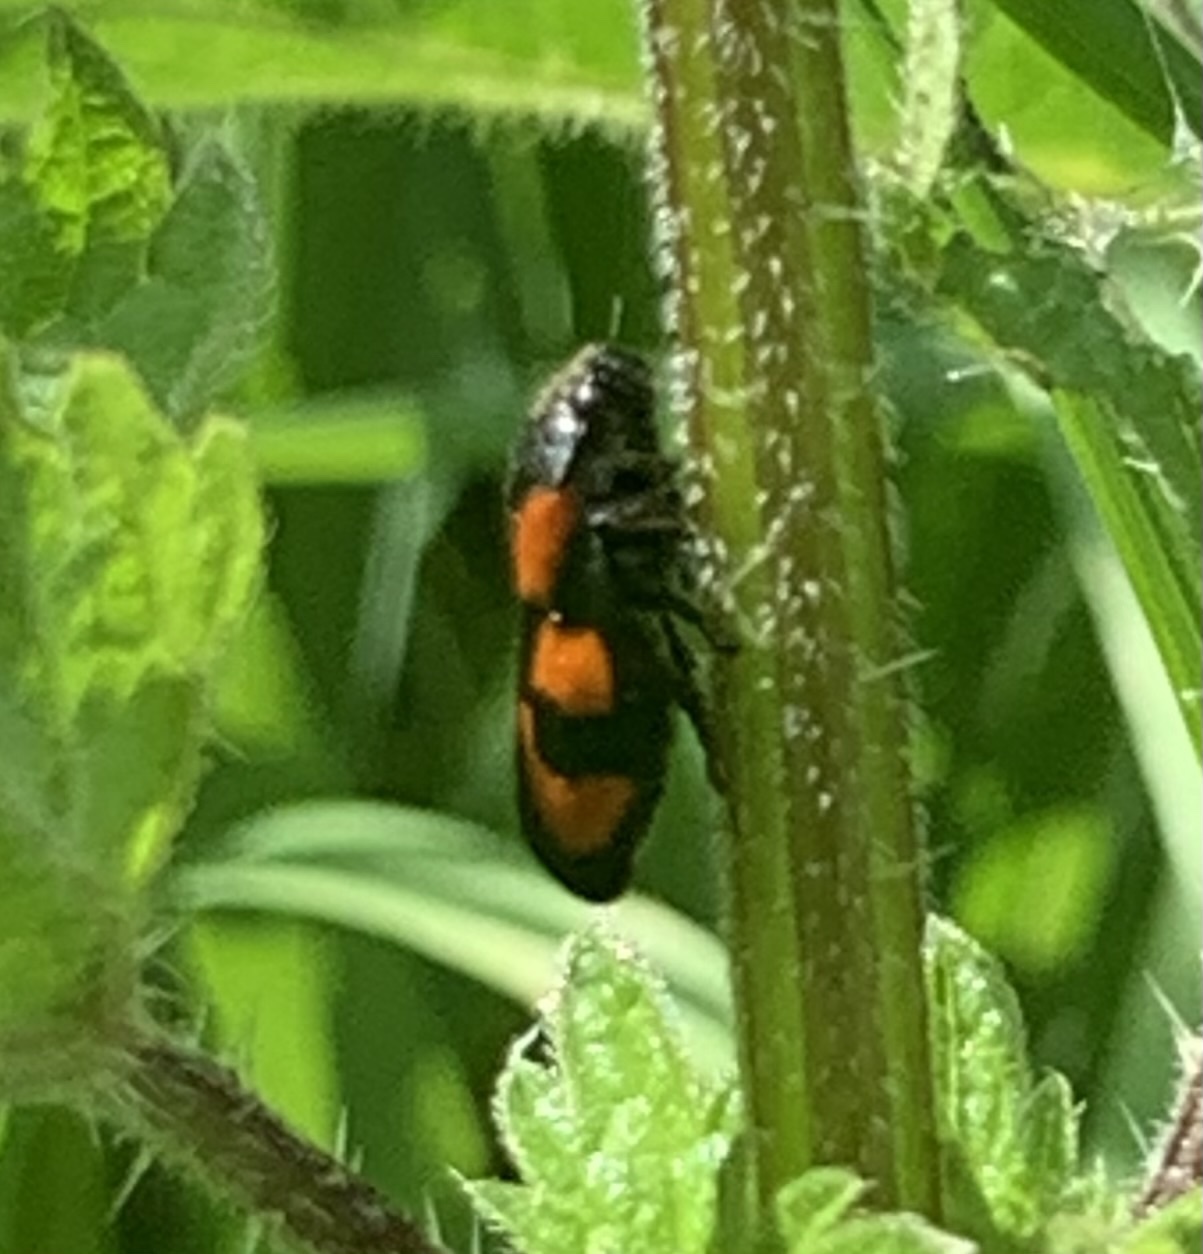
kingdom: Animalia
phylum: Arthropoda
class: Insecta
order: Hemiptera
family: Cercopidae
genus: Cercopis
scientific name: Cercopis vulnerata
